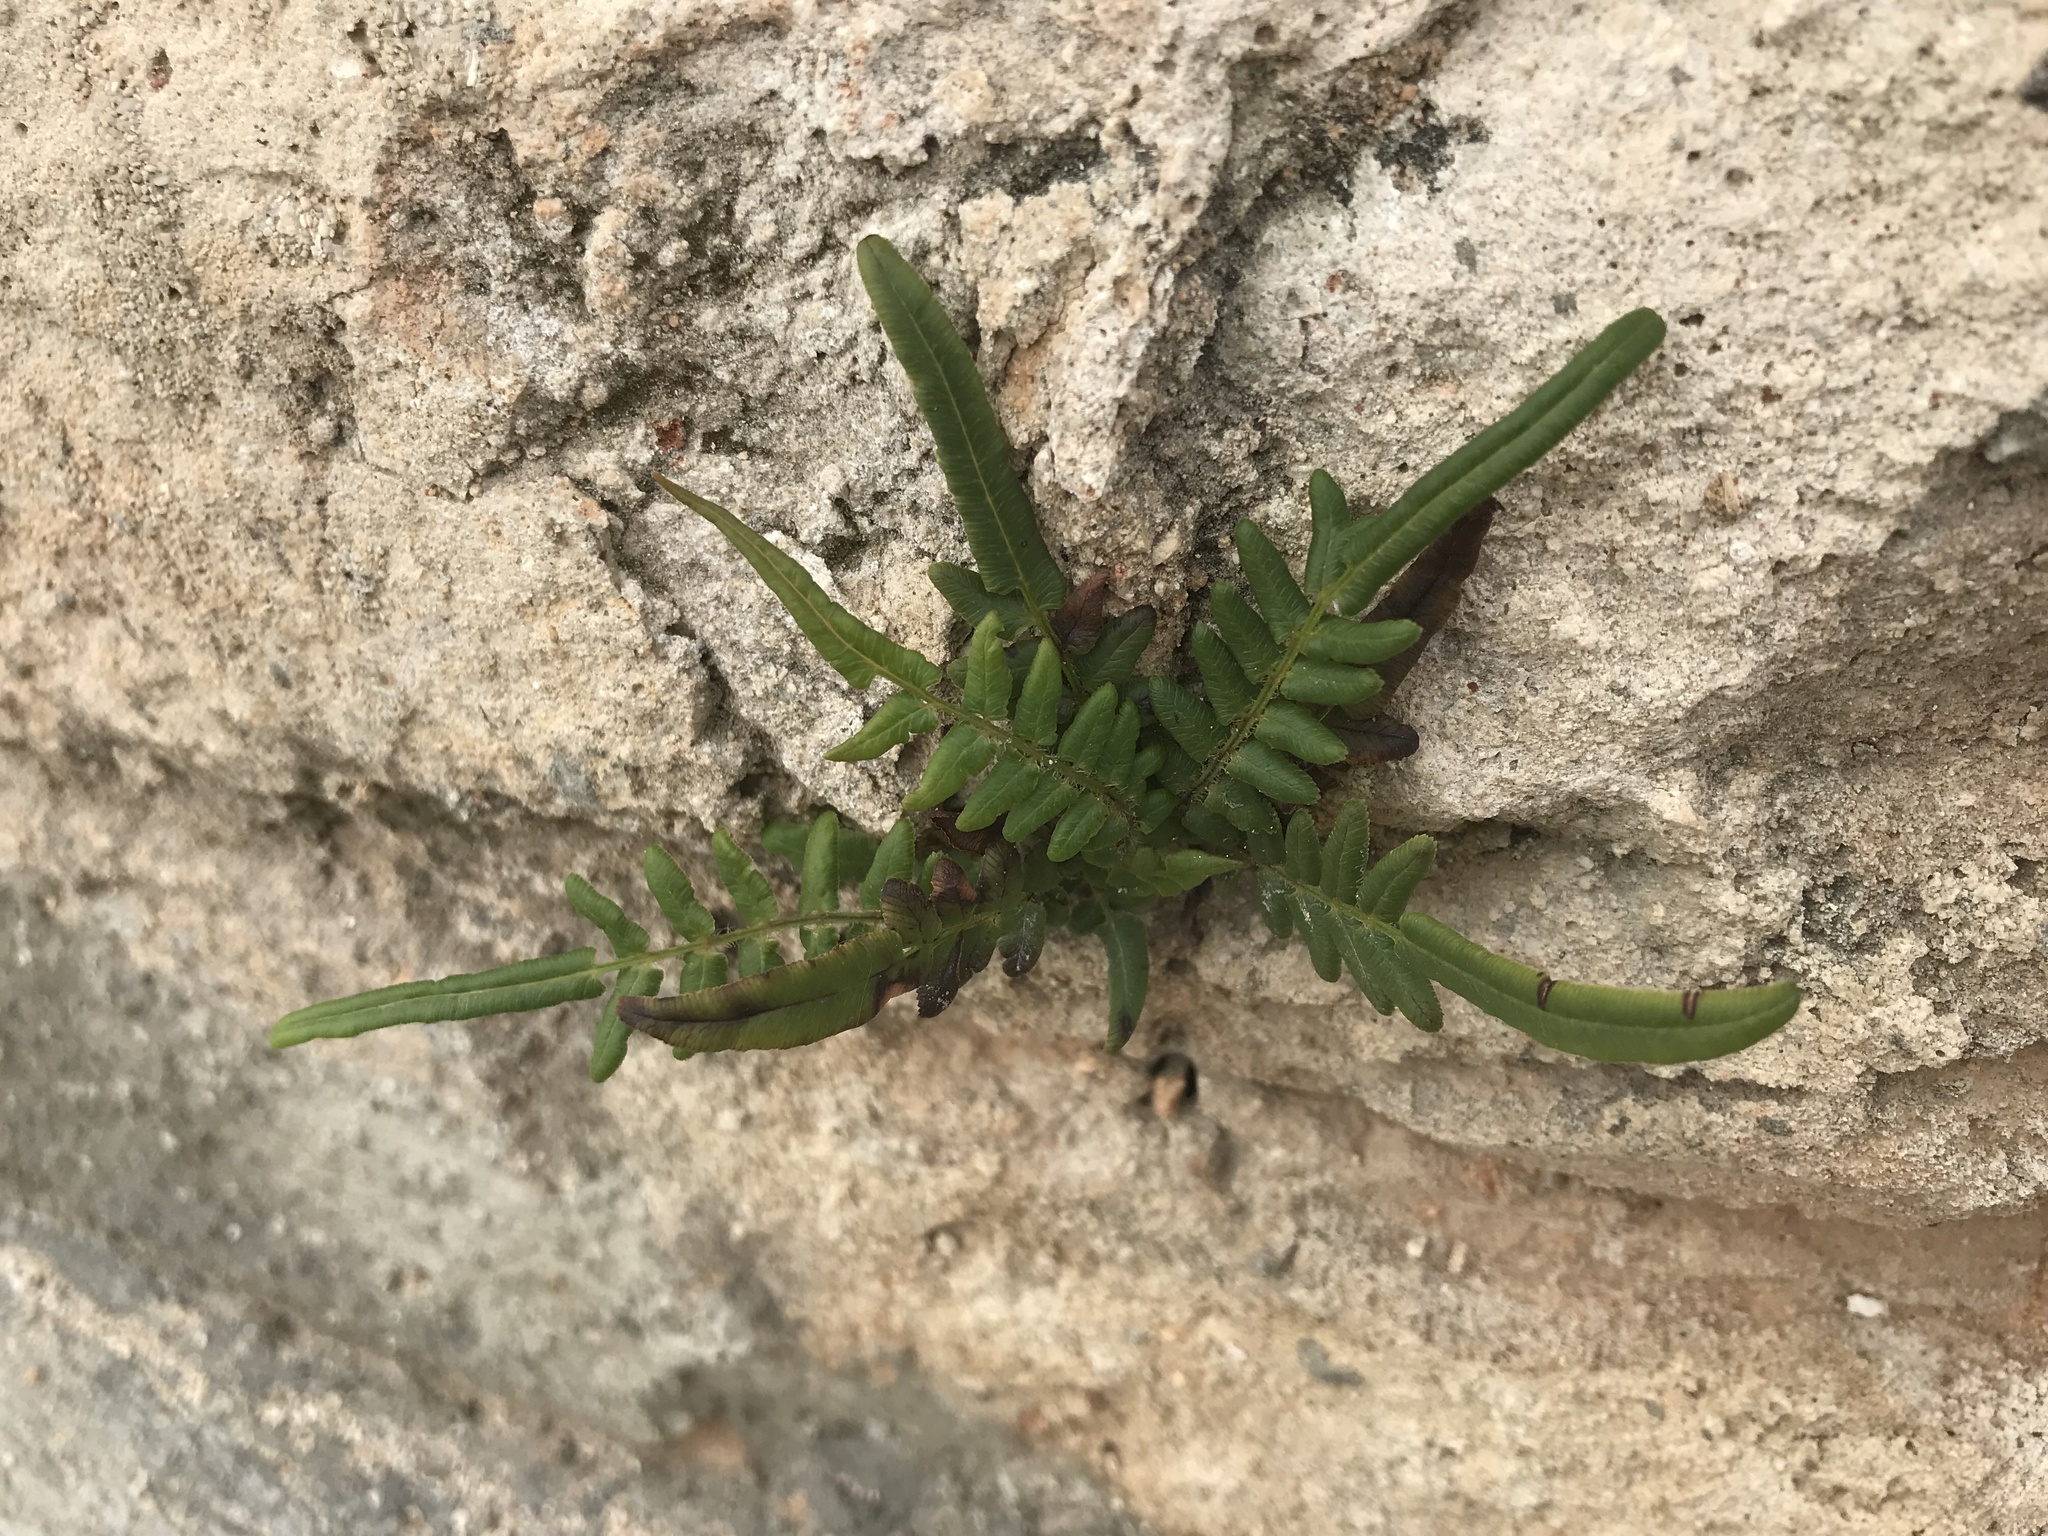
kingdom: Plantae
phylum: Tracheophyta
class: Polypodiopsida
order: Polypodiales
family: Pteridaceae
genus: Pteris
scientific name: Pteris vittata
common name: Ladder brake
